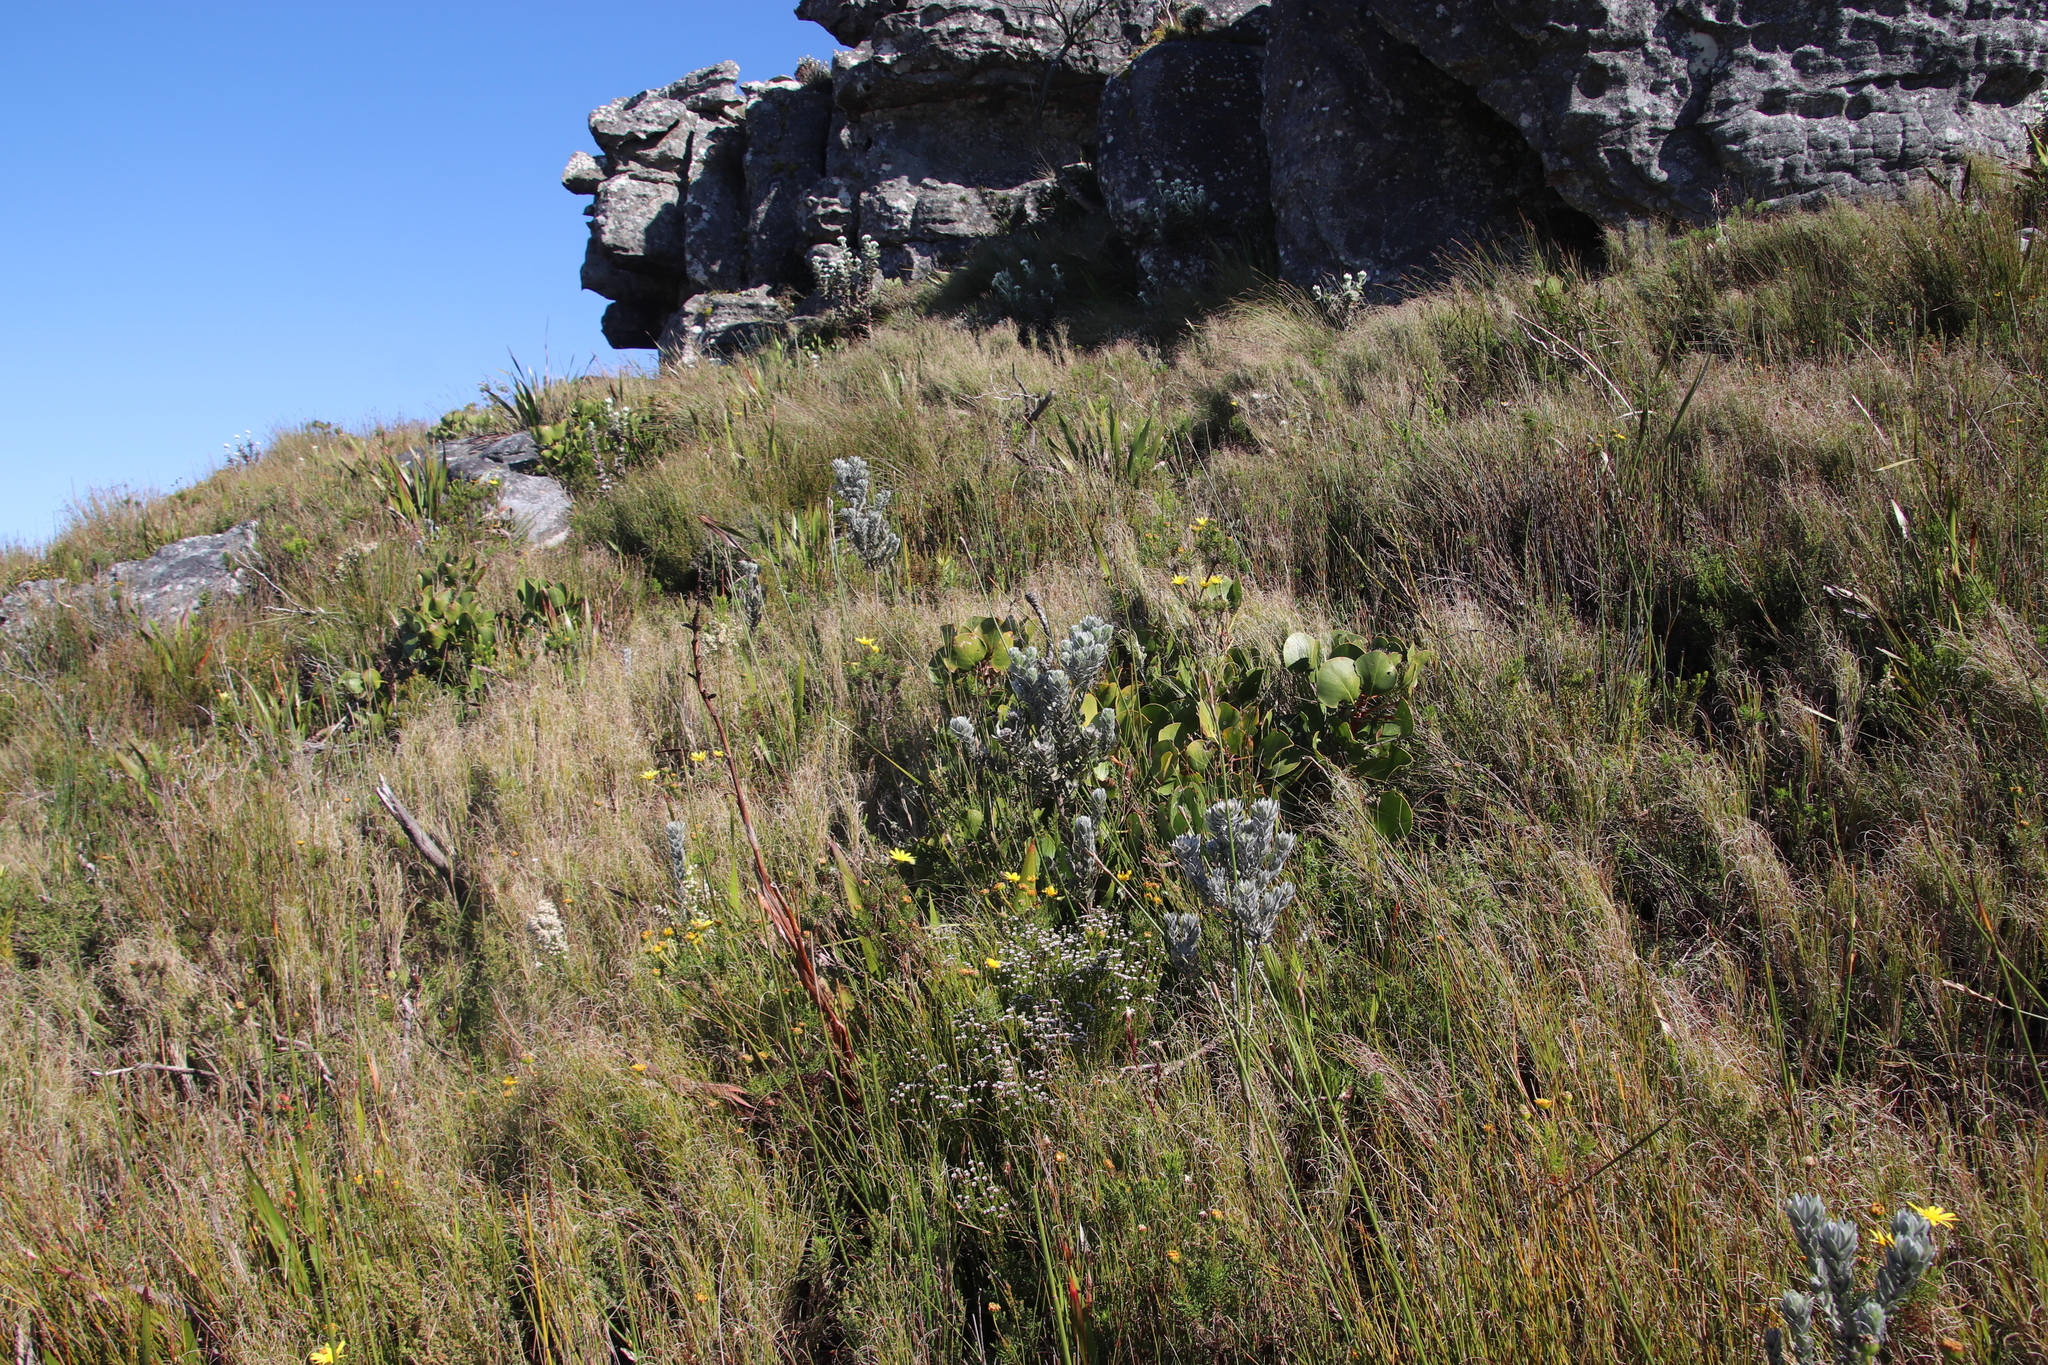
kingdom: Plantae
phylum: Tracheophyta
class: Liliopsida
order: Poales
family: Poaceae
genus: Pseudopentameris
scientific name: Pseudopentameris macrantha
